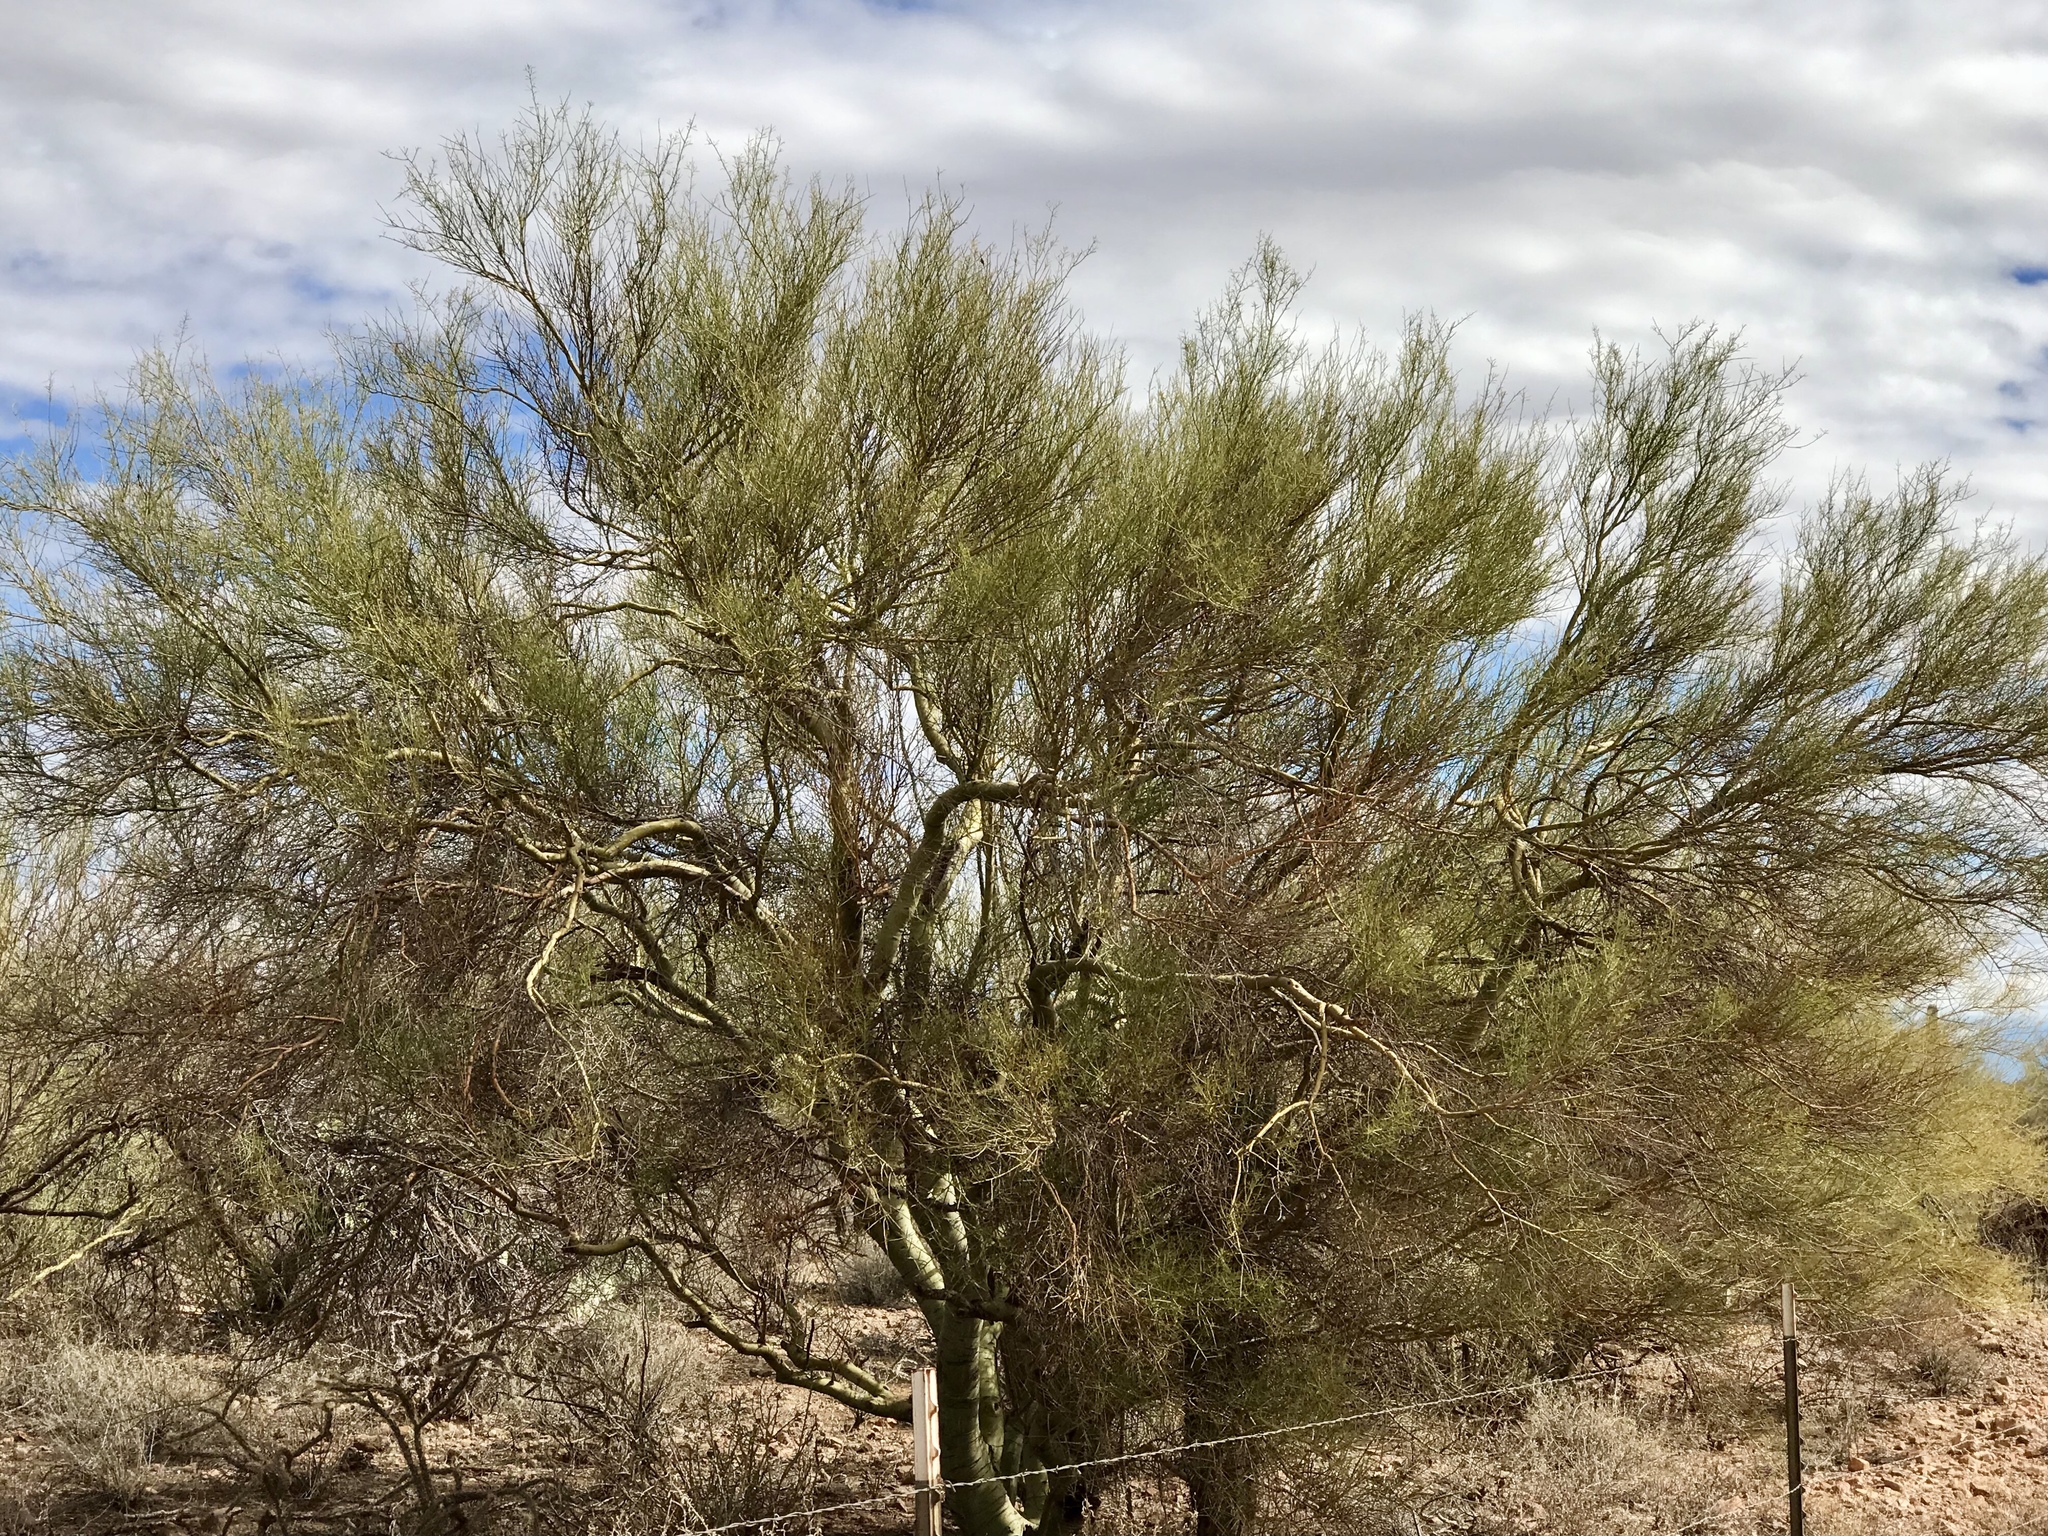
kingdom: Plantae
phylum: Tracheophyta
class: Magnoliopsida
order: Fabales
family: Fabaceae
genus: Parkinsonia
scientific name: Parkinsonia microphylla
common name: Yellow paloverde
